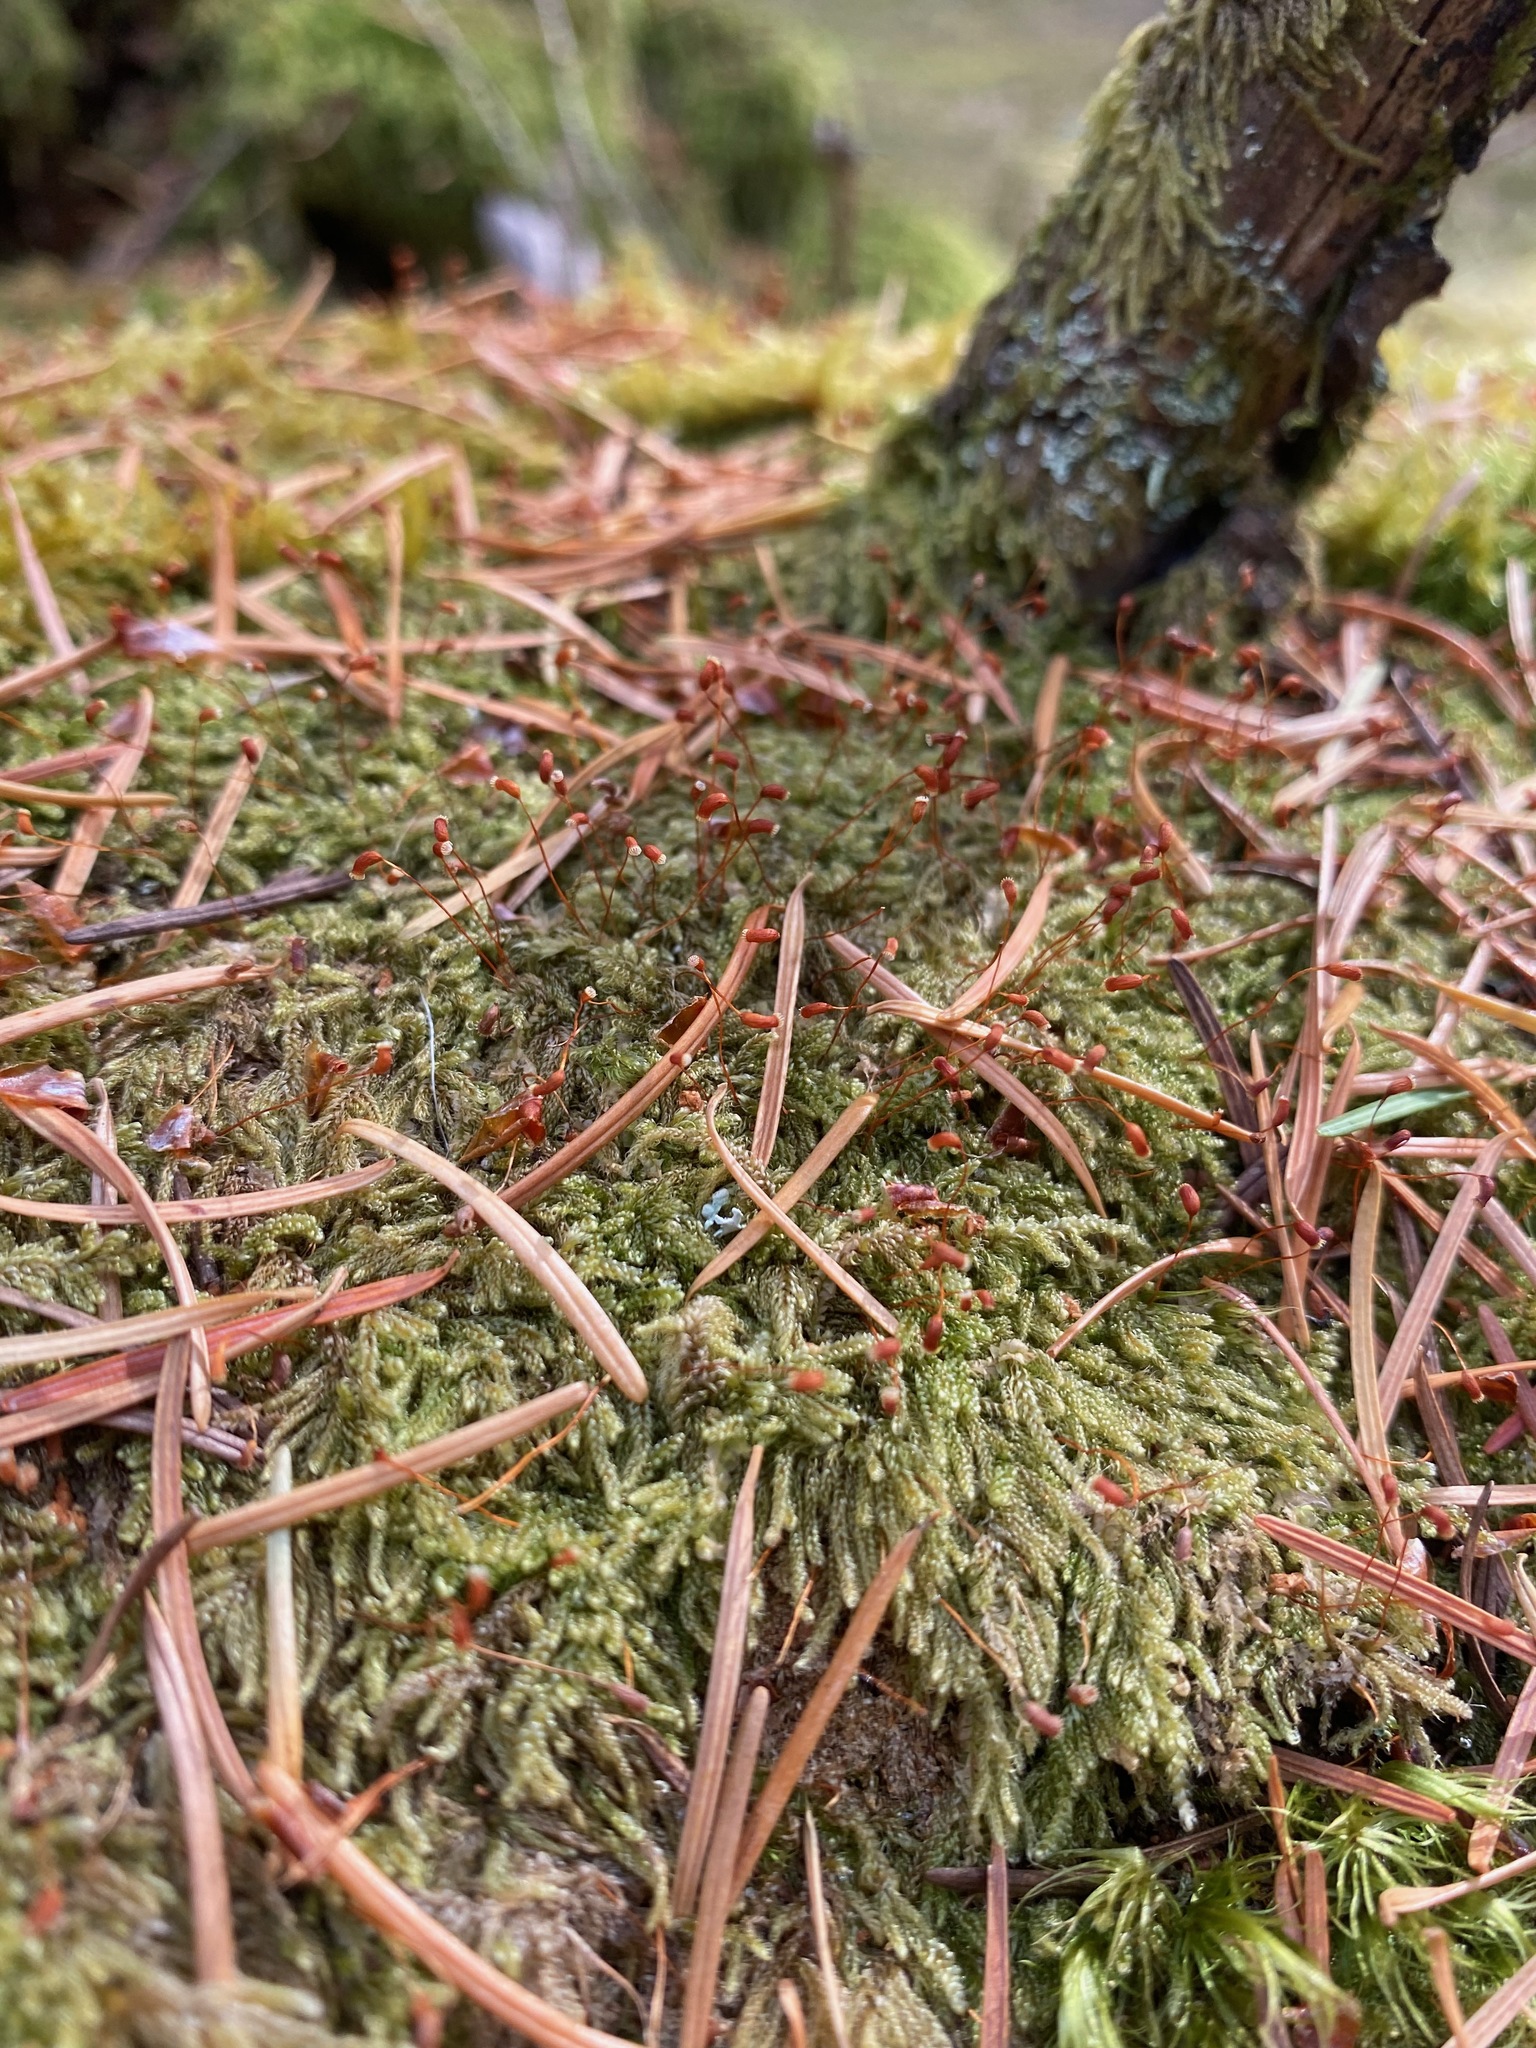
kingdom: Plantae
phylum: Bryophyta
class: Bryopsida
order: Hypnales
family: Pylaisiadelphaceae
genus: Trochophyllohypnum
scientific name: Trochophyllohypnum circinale
